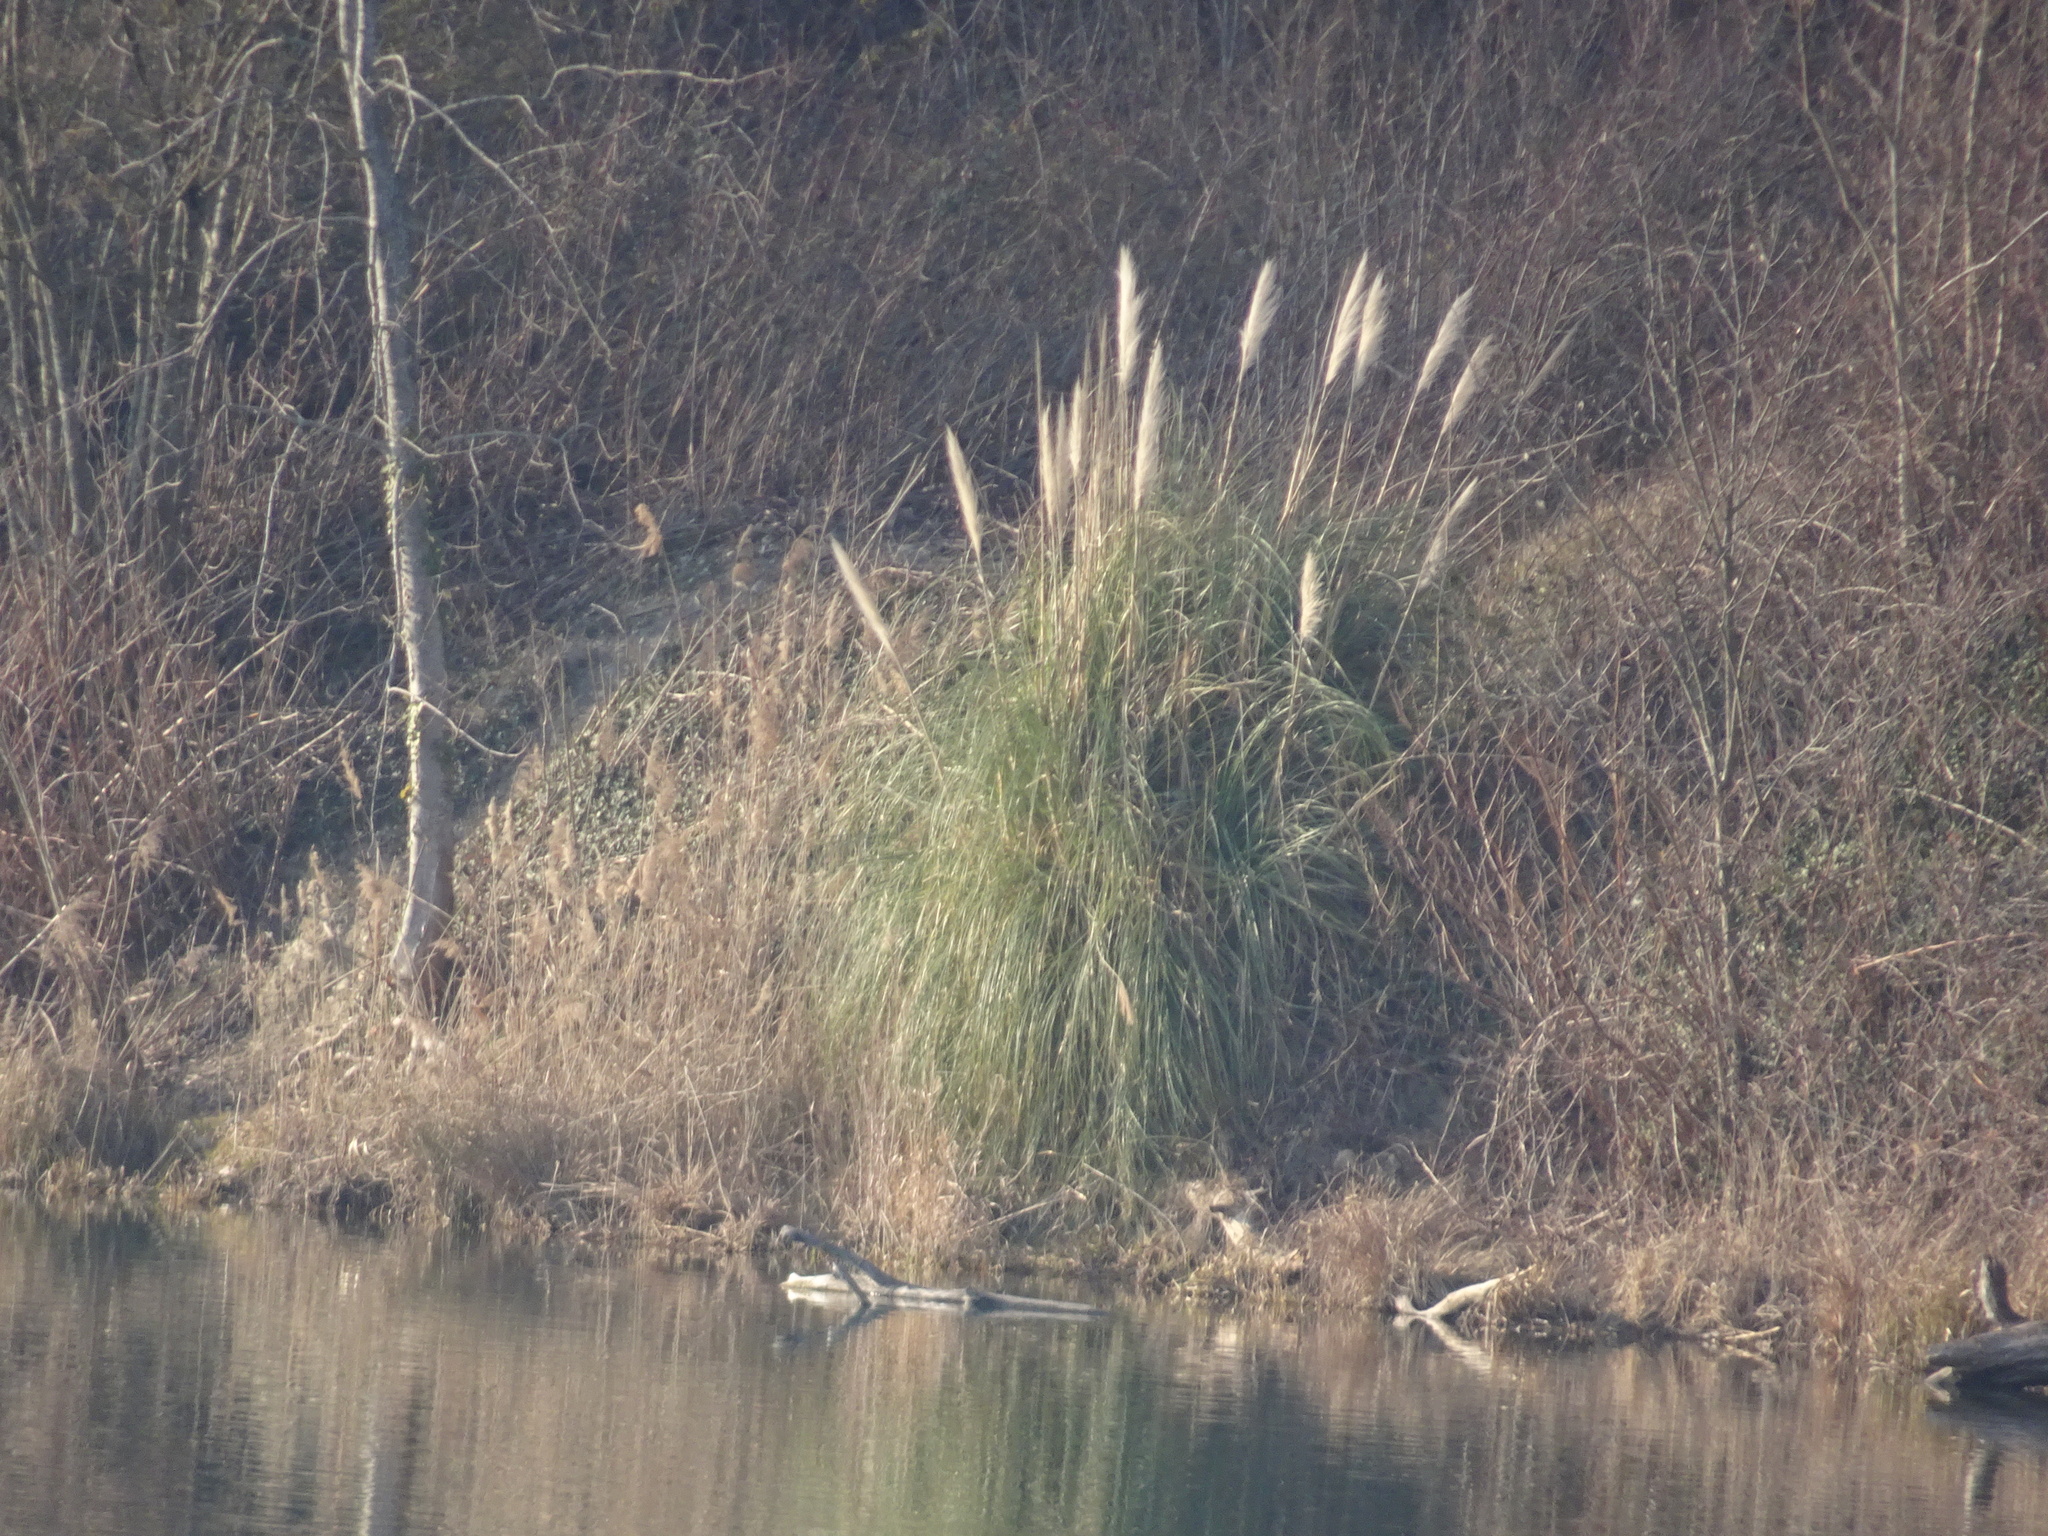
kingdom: Plantae
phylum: Tracheophyta
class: Liliopsida
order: Poales
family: Poaceae
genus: Cortaderia
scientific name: Cortaderia selloana
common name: Uruguayan pampas grass
